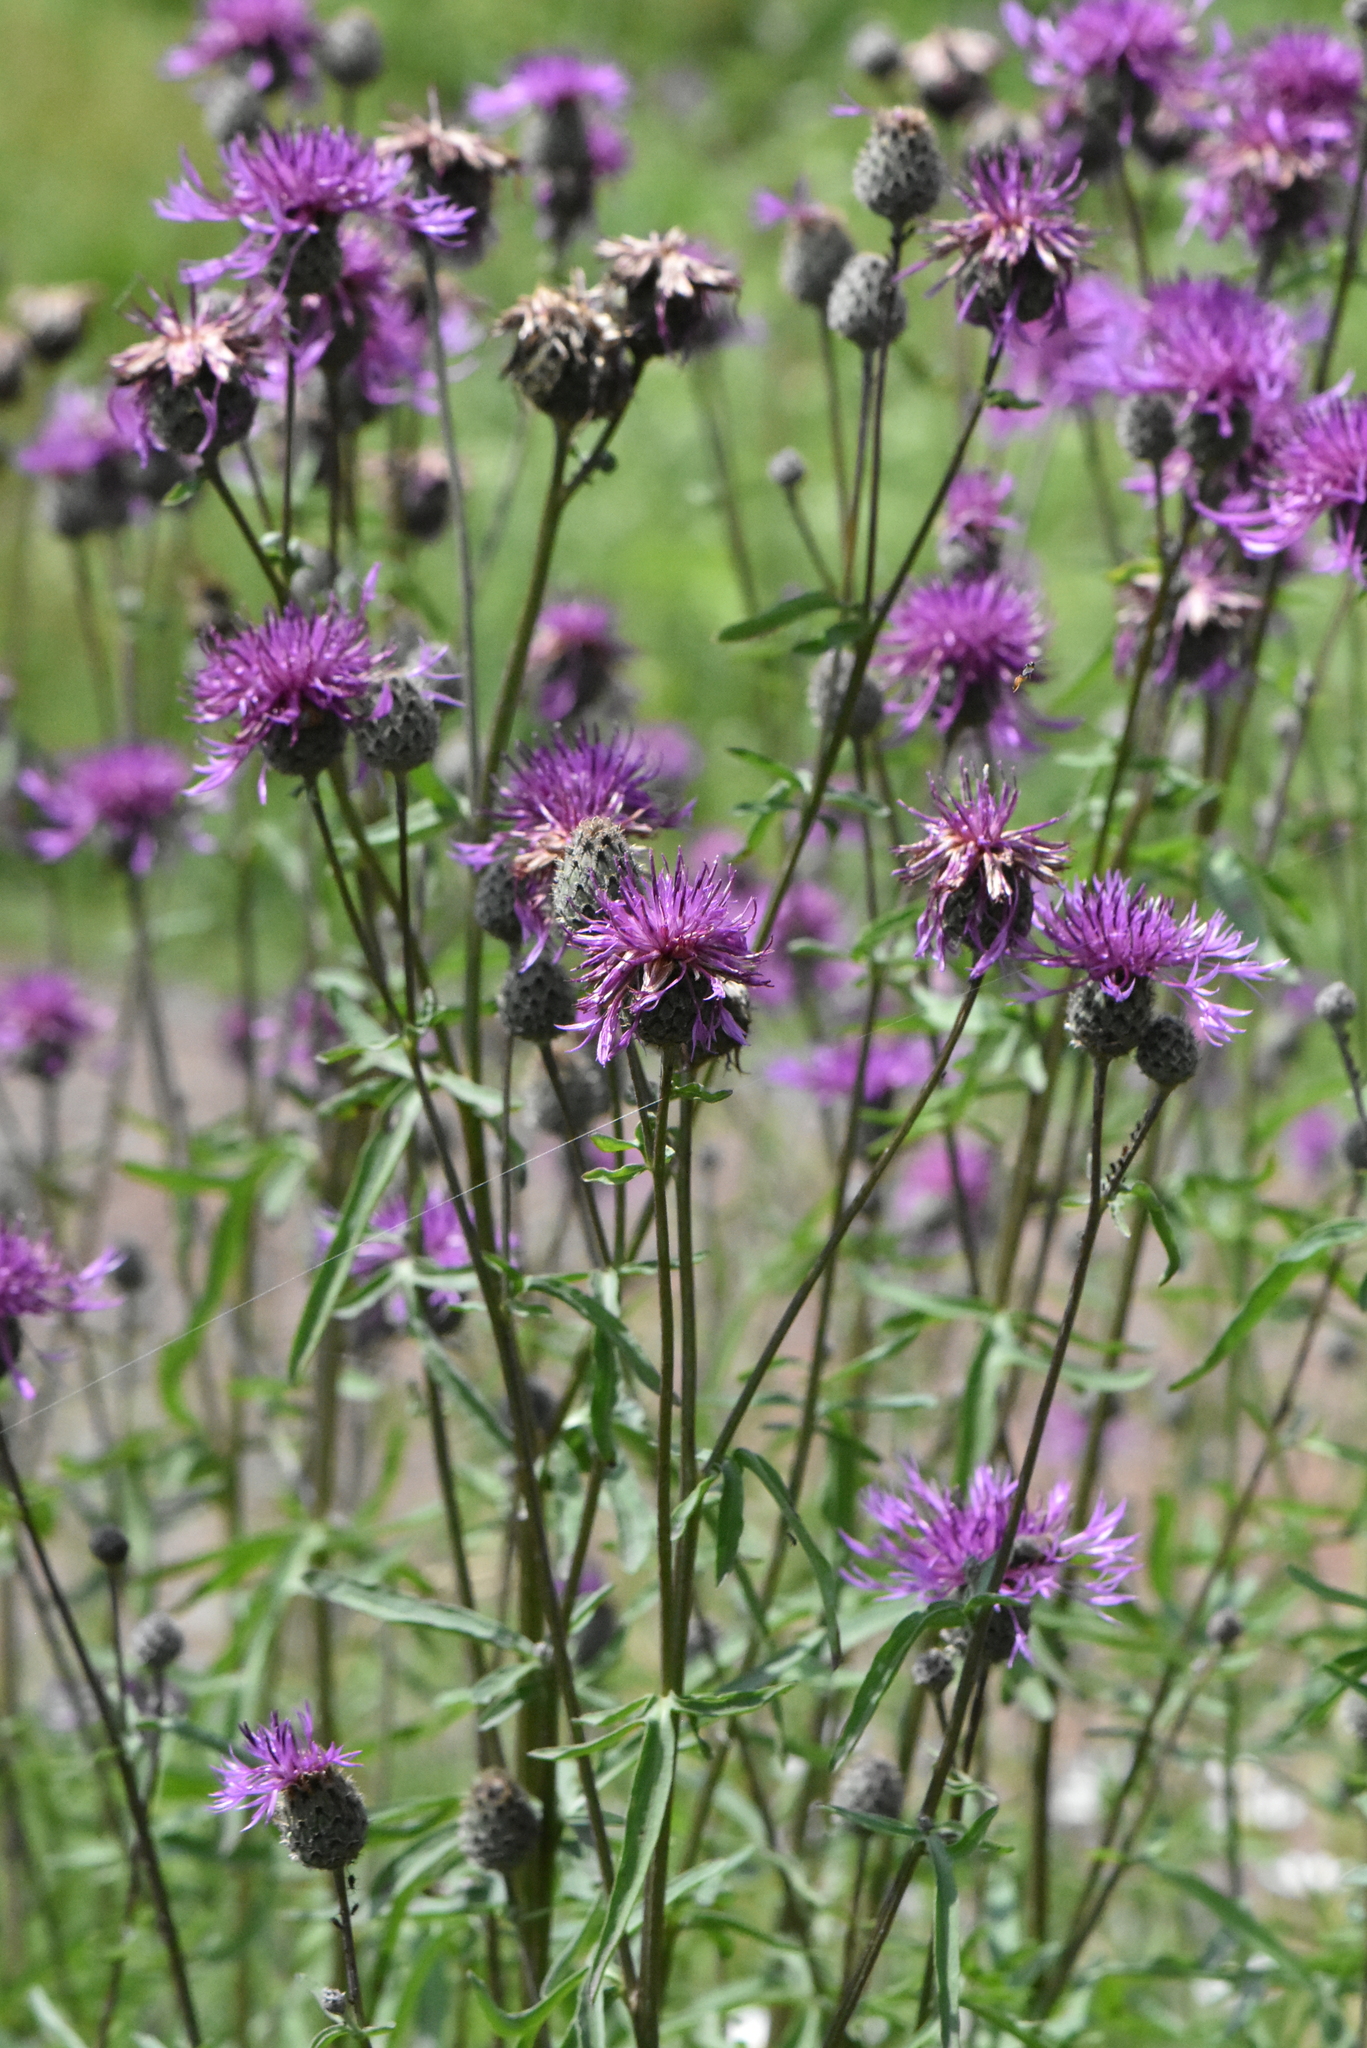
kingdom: Plantae
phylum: Tracheophyta
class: Magnoliopsida
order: Asterales
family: Asteraceae
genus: Centaurea
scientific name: Centaurea scabiosa
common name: Greater knapweed
